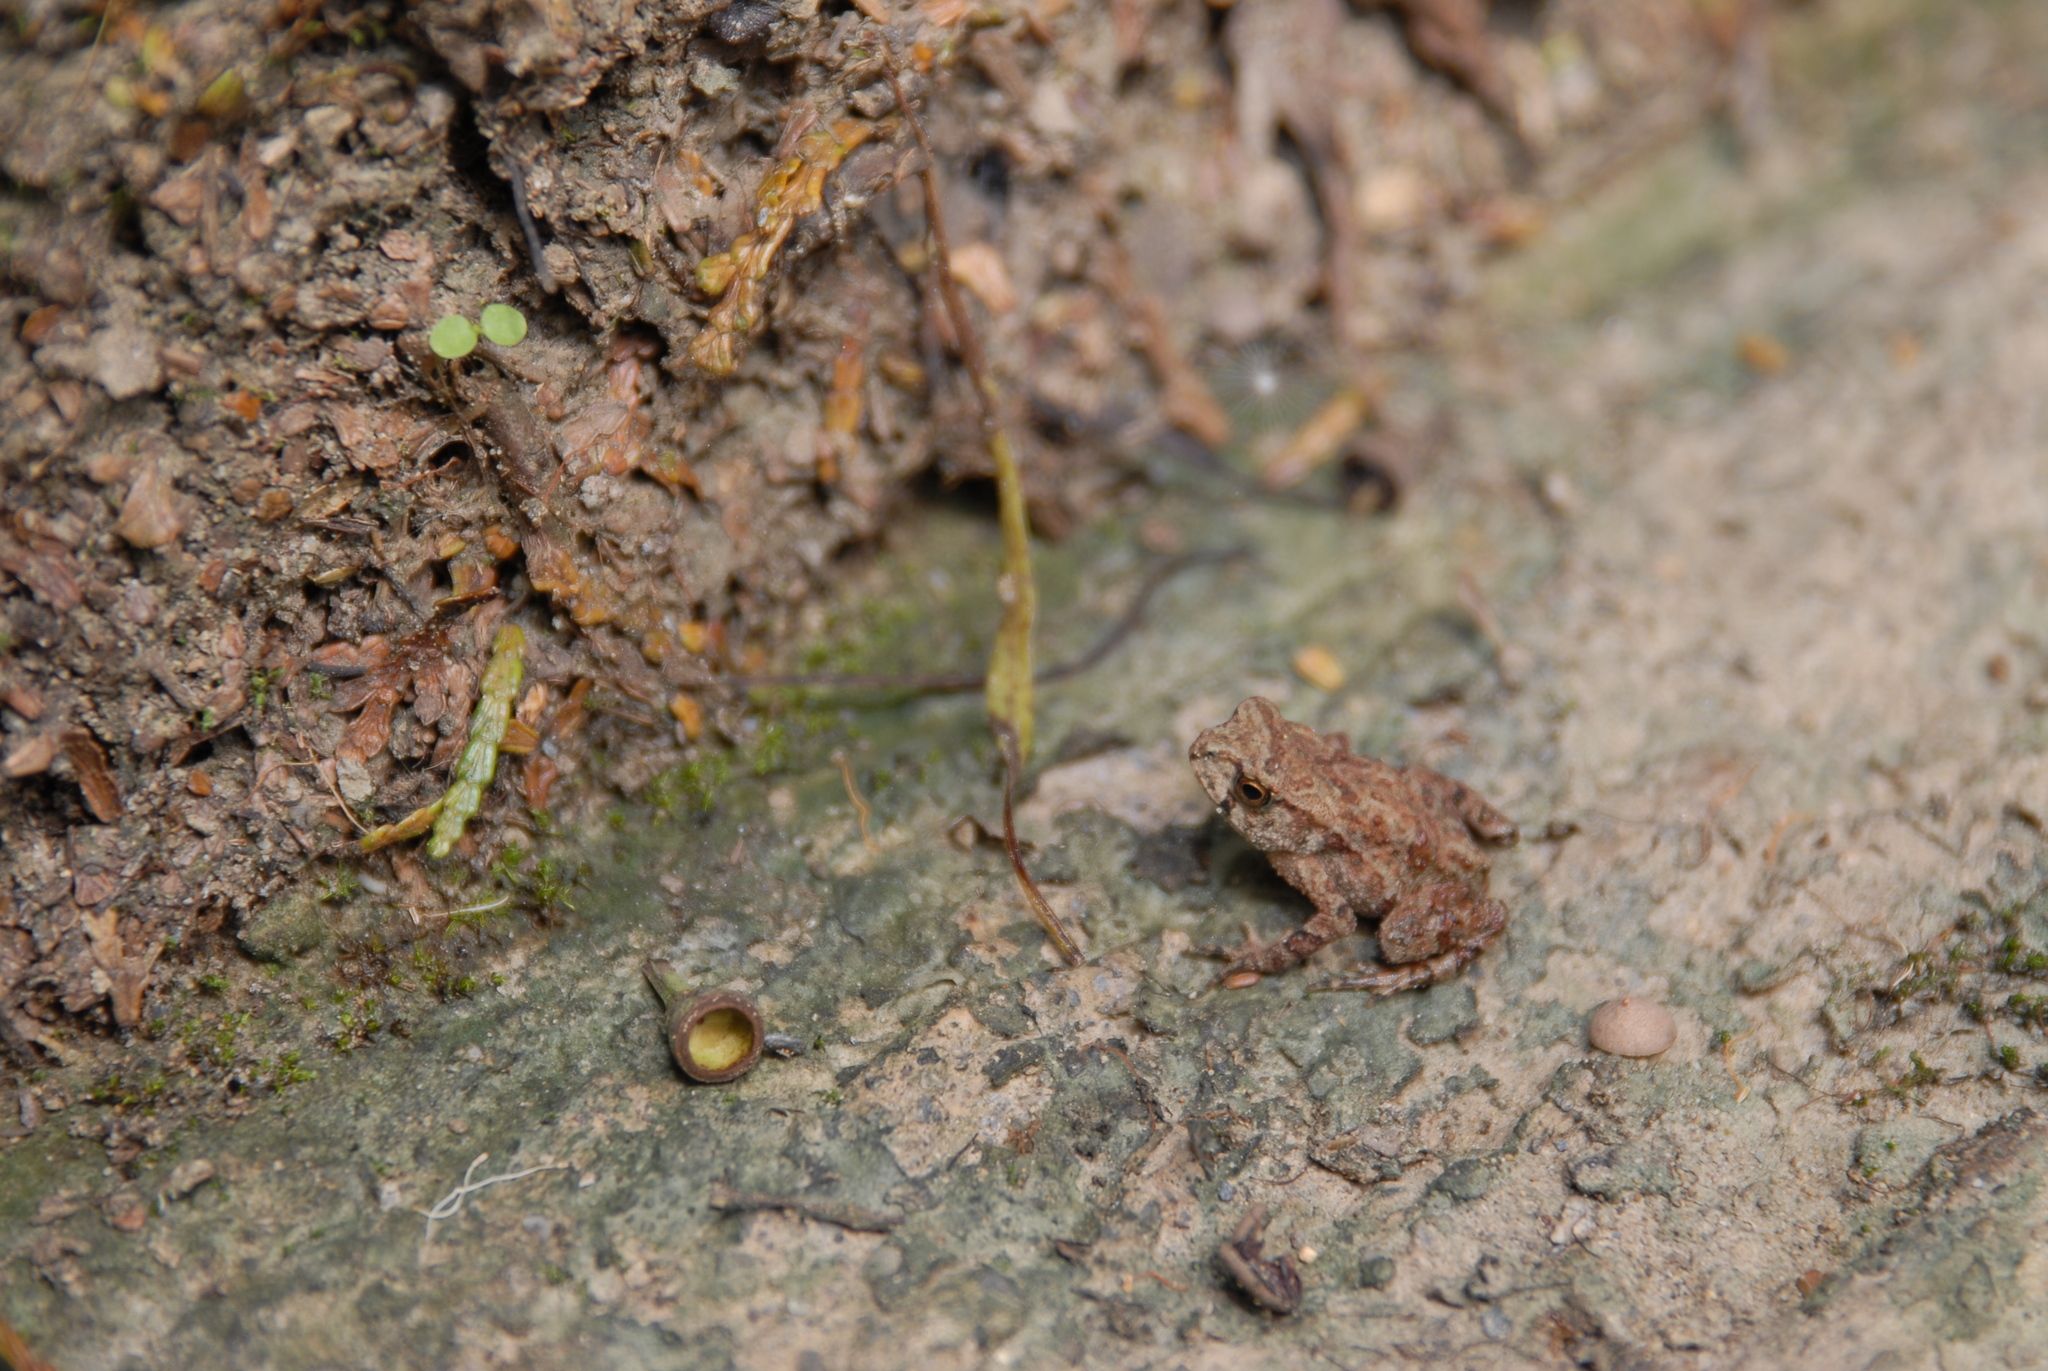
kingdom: Animalia
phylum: Chordata
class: Amphibia
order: Anura
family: Bufonidae
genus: Bufo
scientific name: Bufo bankorensis
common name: Bankor toad
